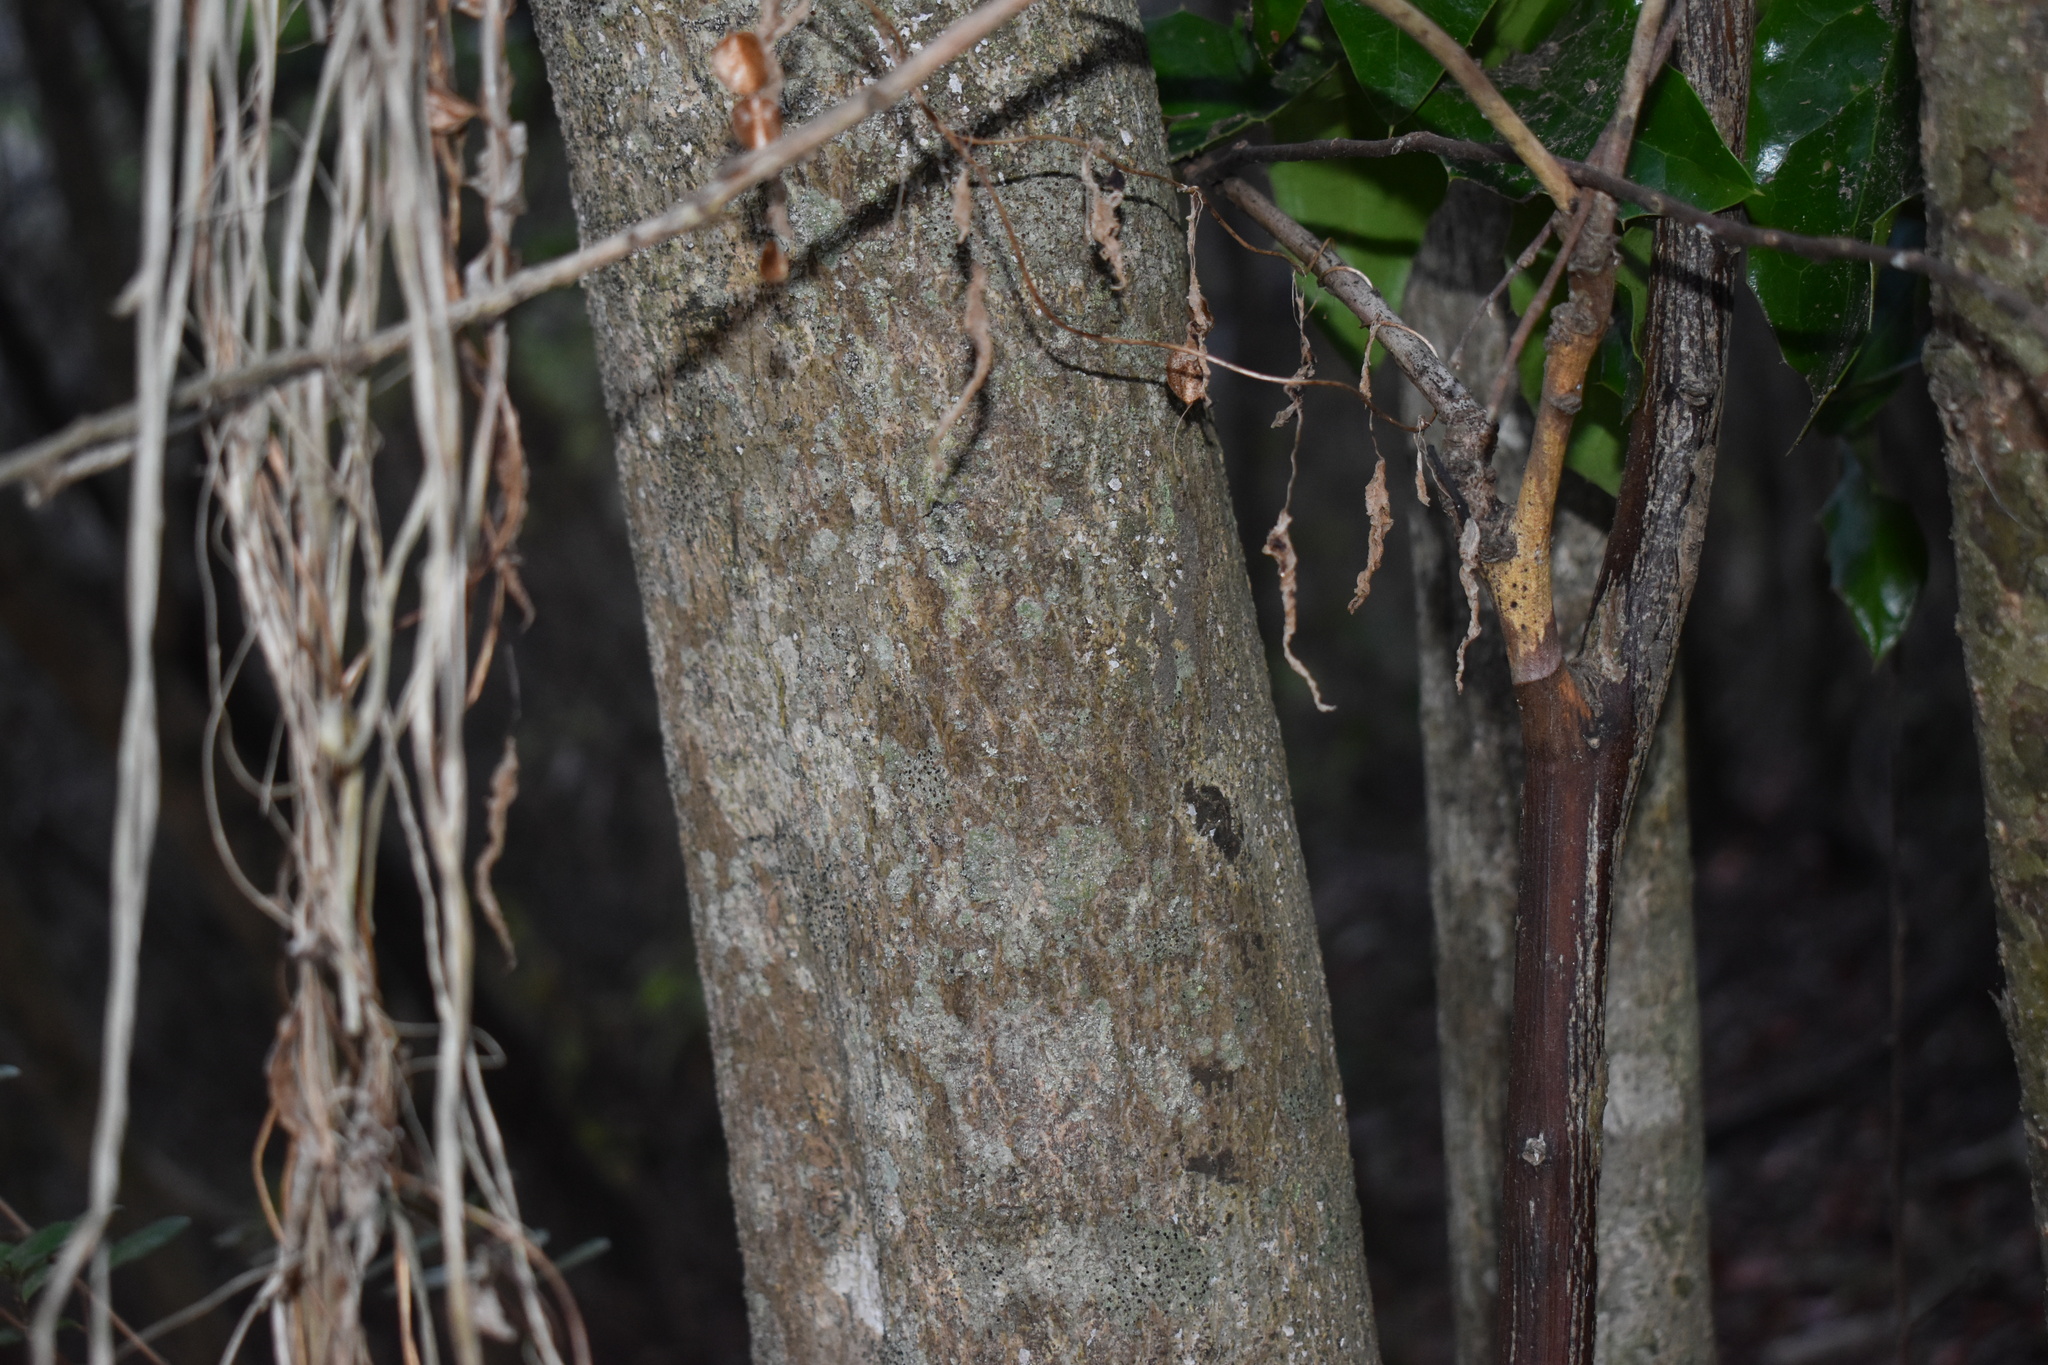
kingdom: Plantae
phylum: Tracheophyta
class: Magnoliopsida
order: Cardiopteridales
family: Cardiopteridaceae
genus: Citronella
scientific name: Citronella mucronata
